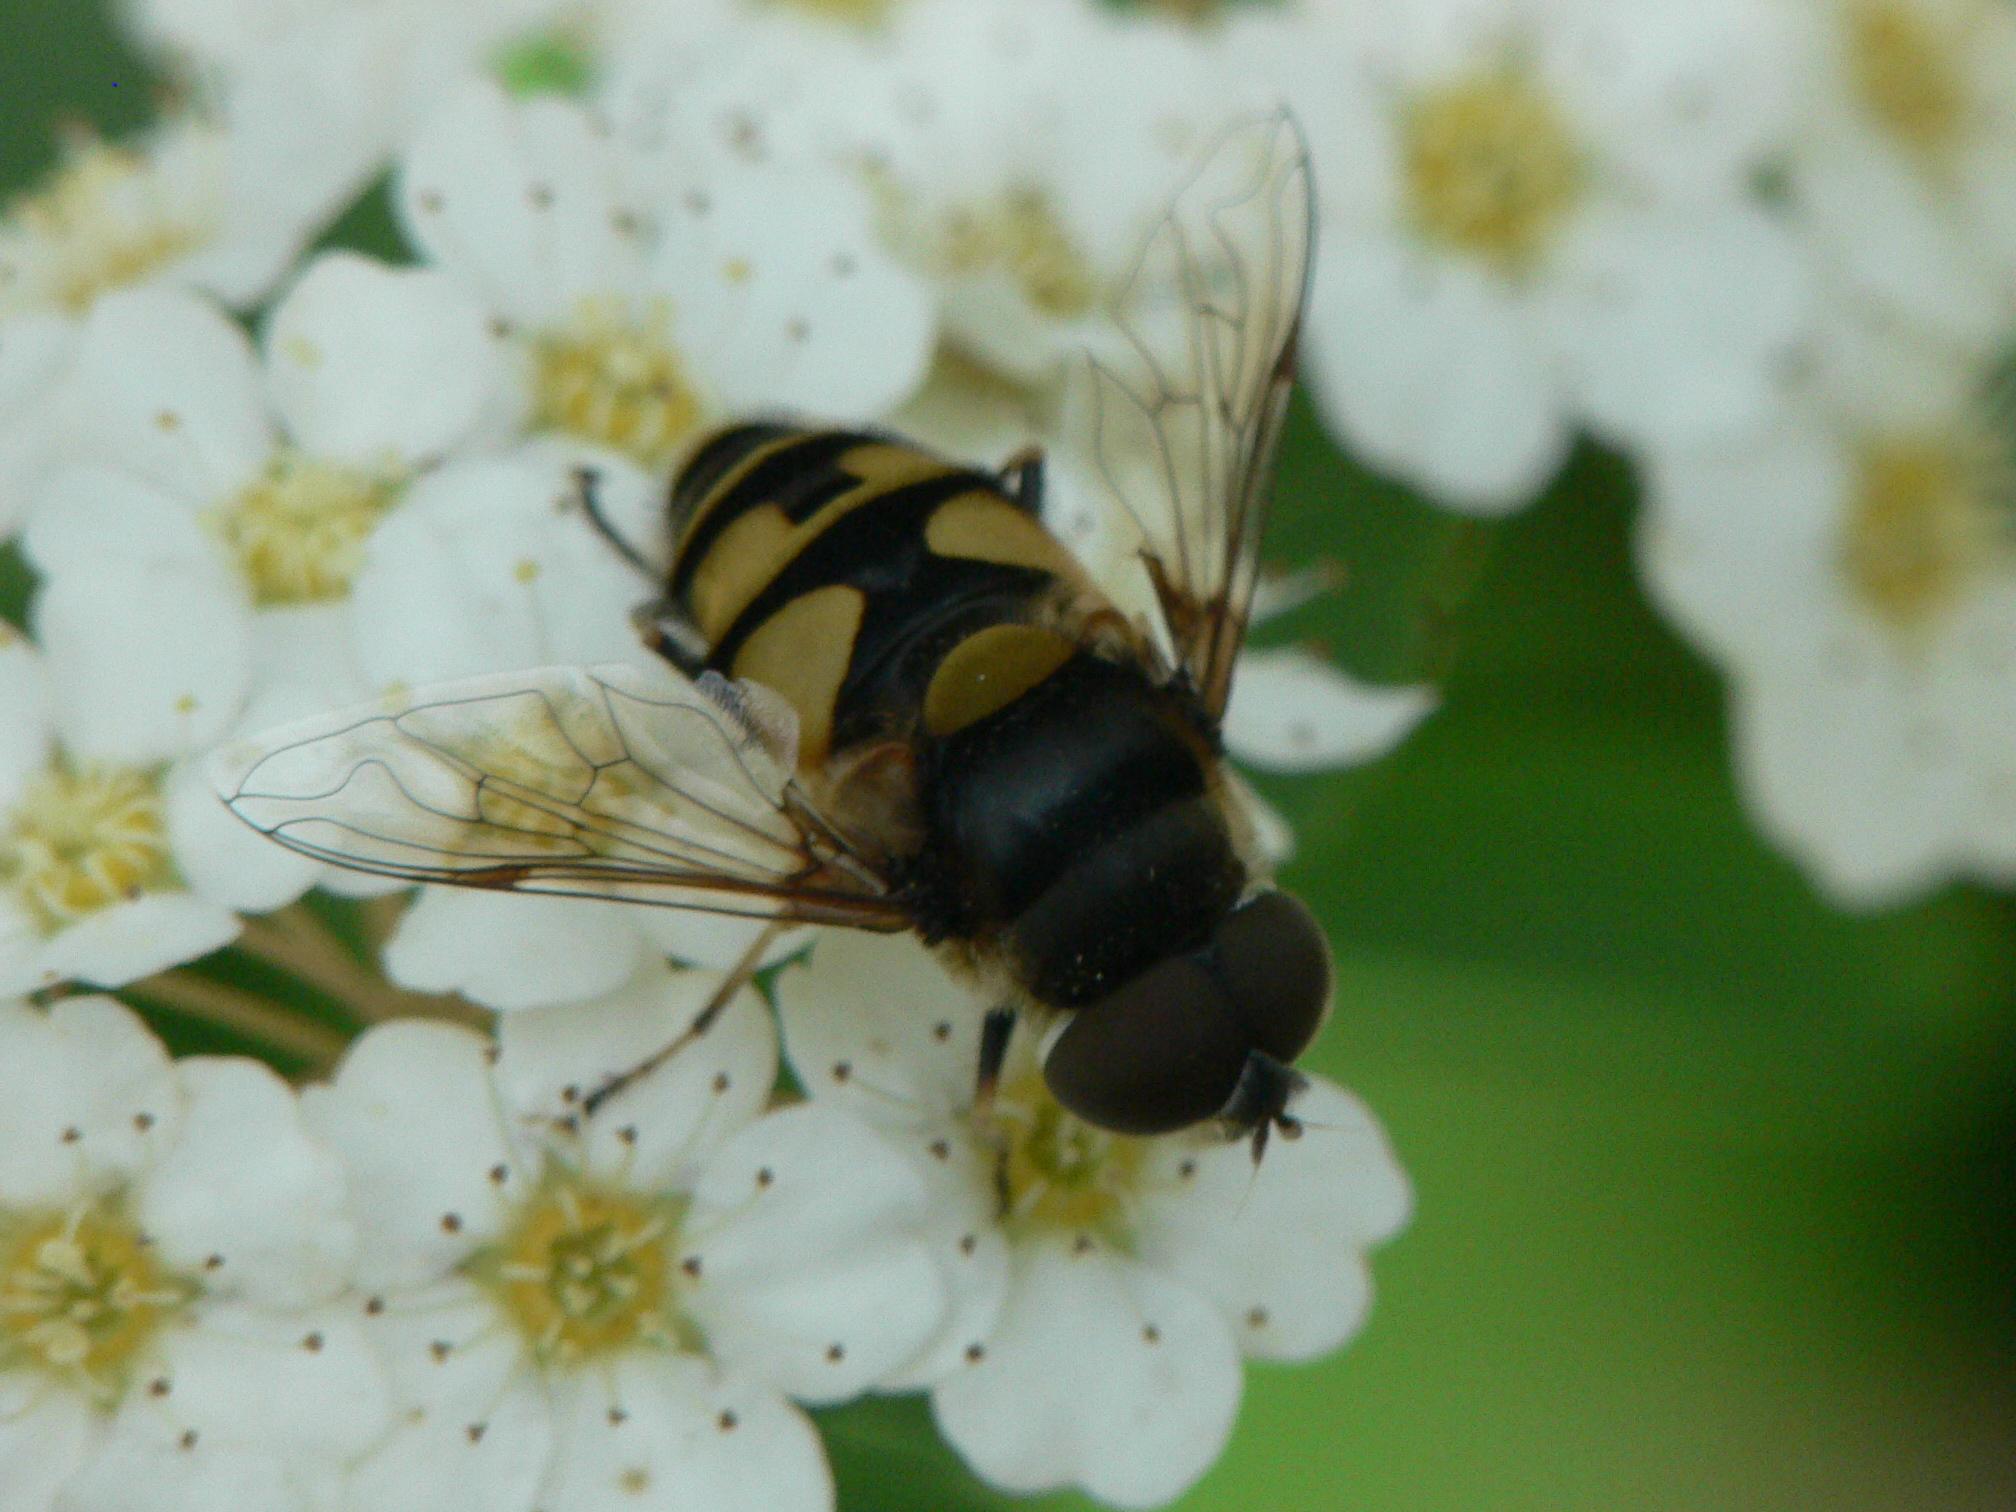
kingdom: Animalia
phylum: Arthropoda
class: Insecta
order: Diptera
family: Syrphidae
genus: Eristalis
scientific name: Eristalis transversa
